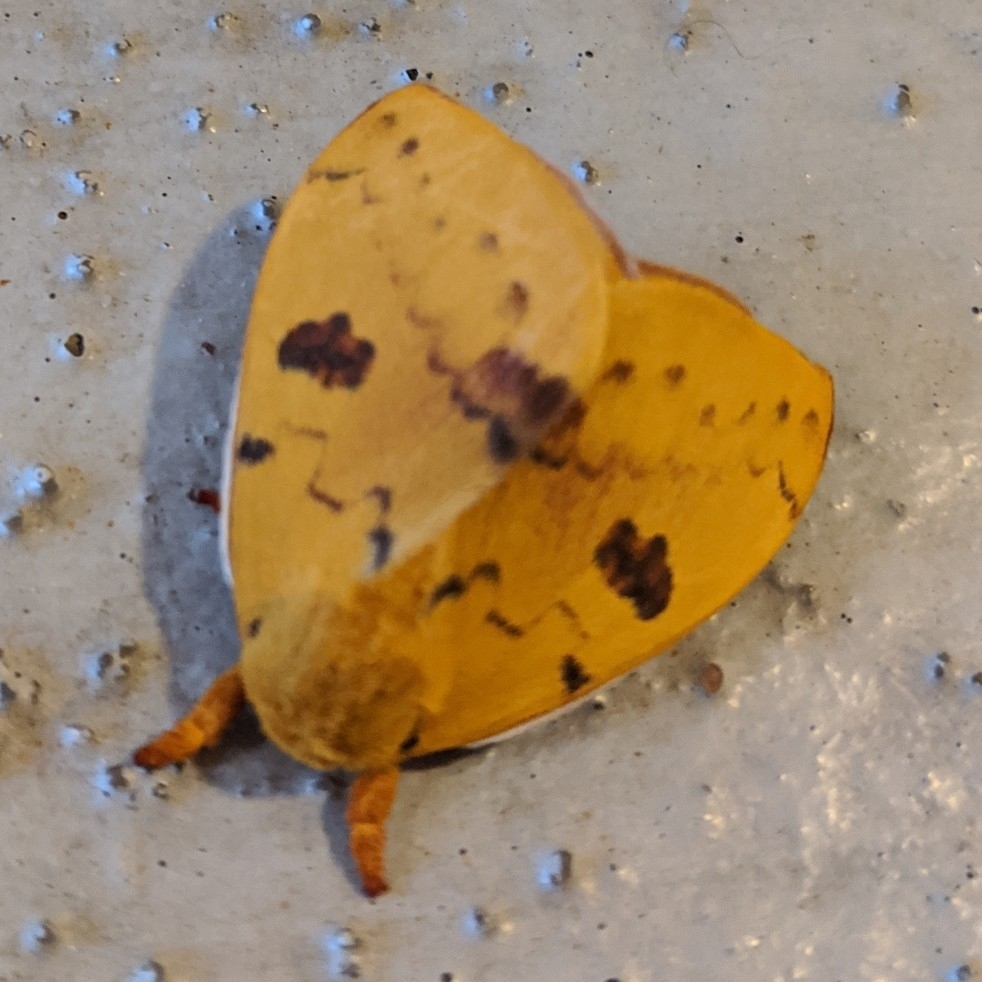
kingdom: Animalia
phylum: Arthropoda
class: Insecta
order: Lepidoptera
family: Saturniidae
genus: Automeris
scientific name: Automeris io
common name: Io moth
